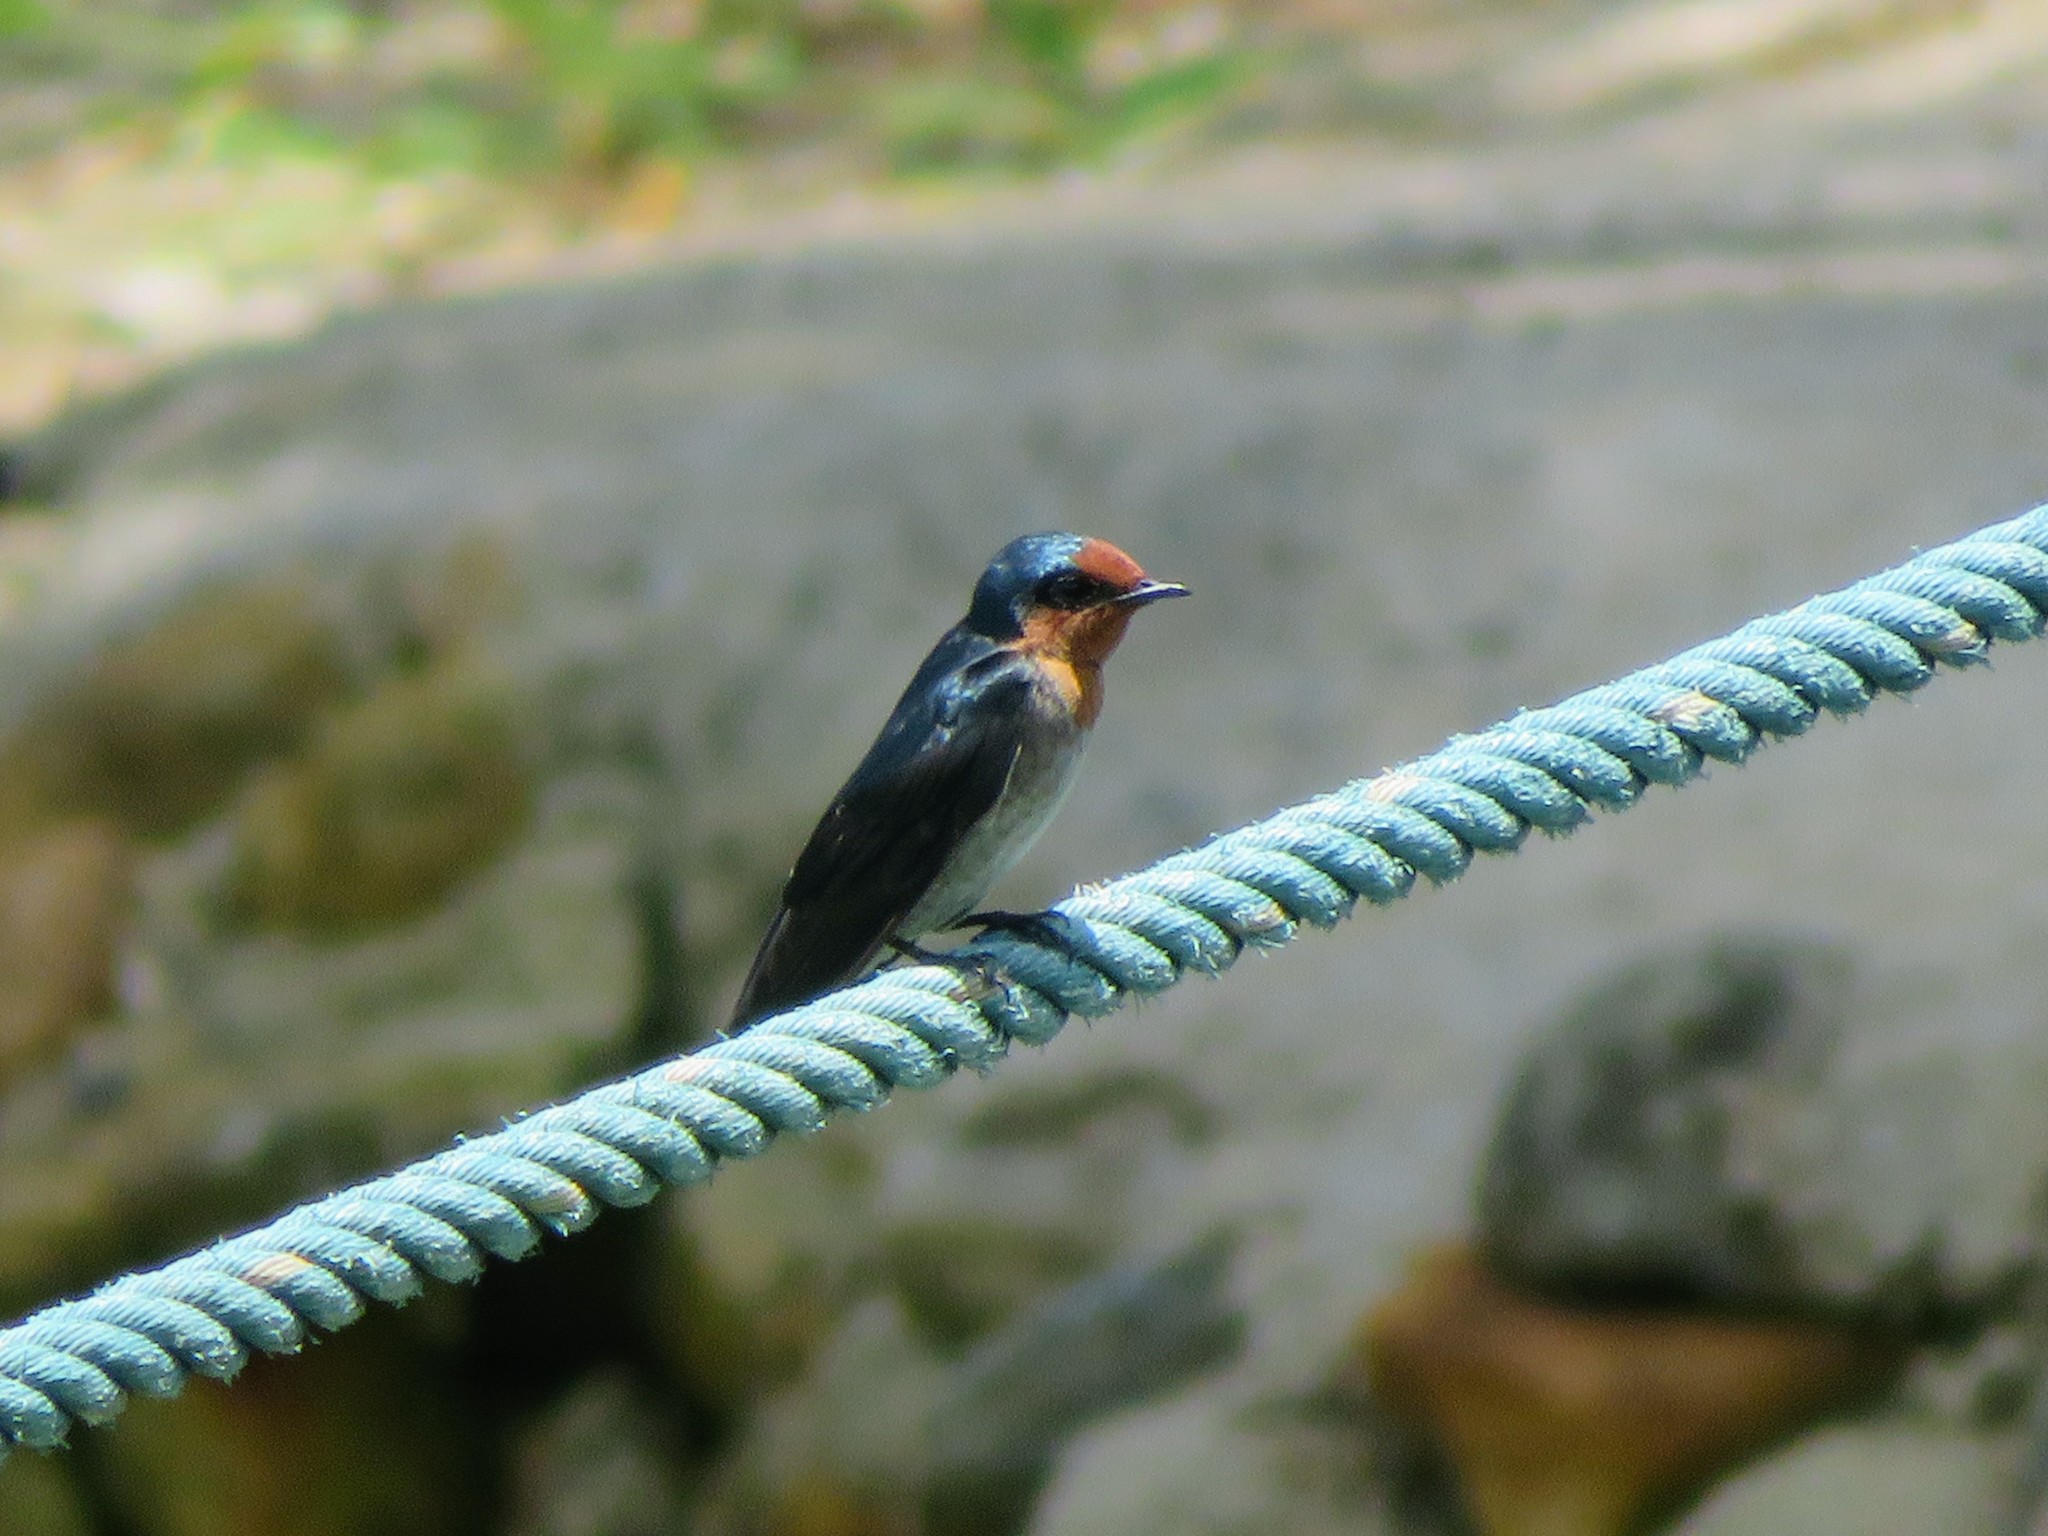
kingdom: Animalia
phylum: Chordata
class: Aves
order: Passeriformes
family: Hirundinidae
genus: Hirundo
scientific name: Hirundo tahitica
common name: Pacific swallow
